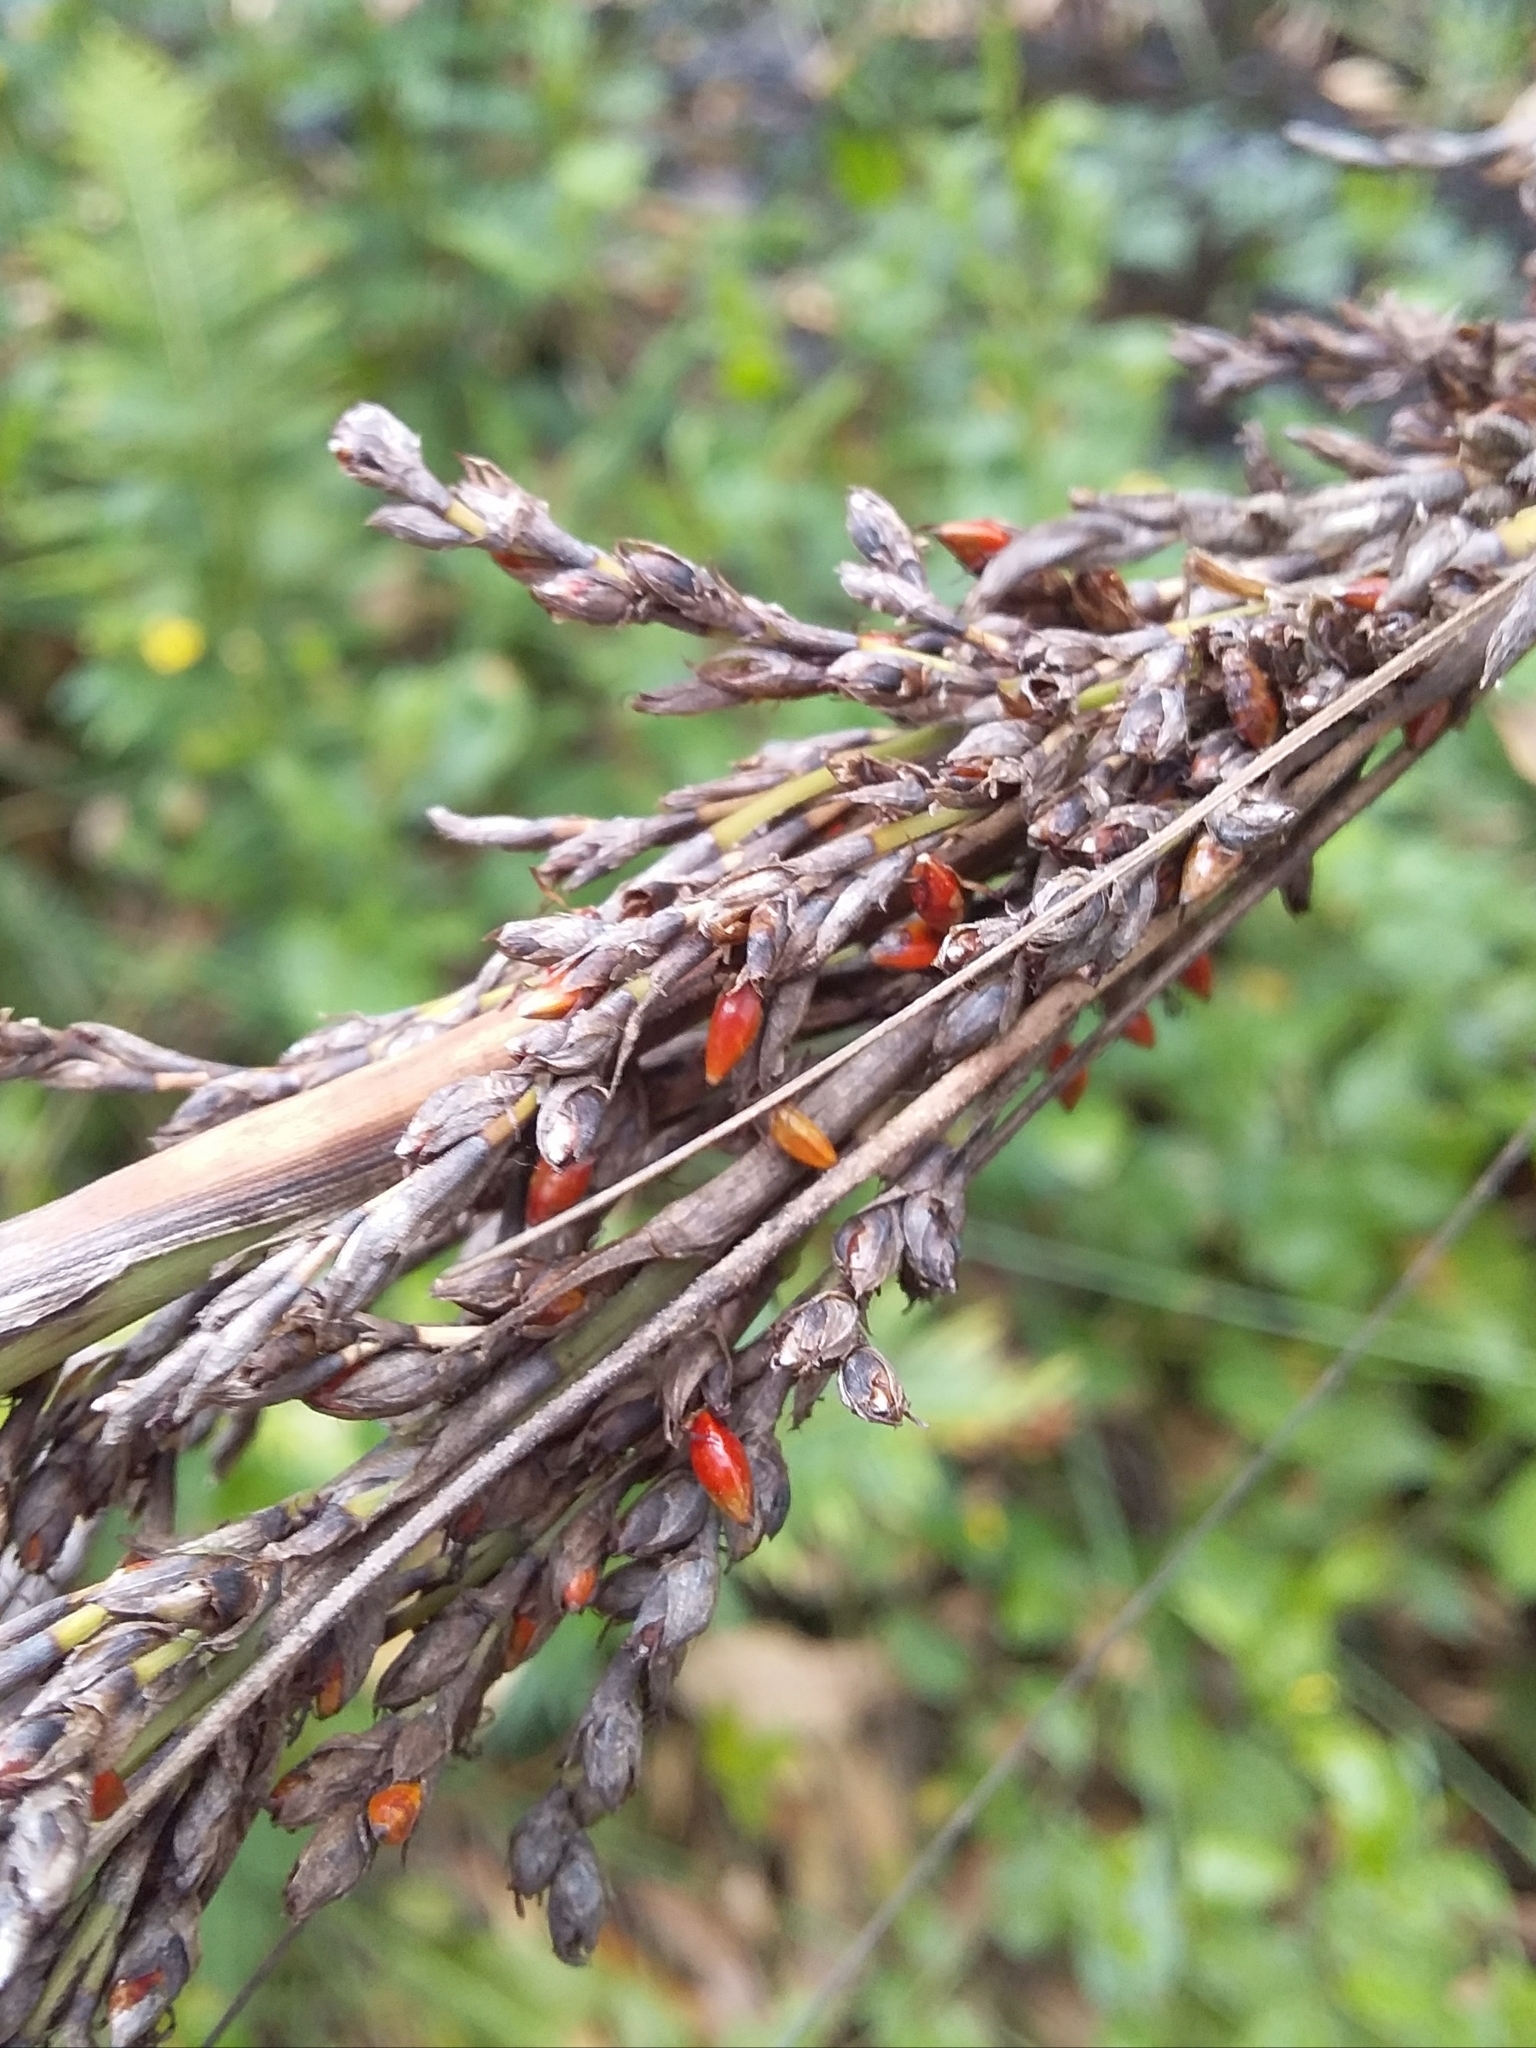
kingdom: Plantae
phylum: Tracheophyta
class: Liliopsida
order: Poales
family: Cyperaceae
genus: Gahnia
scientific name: Gahnia sieberiana
